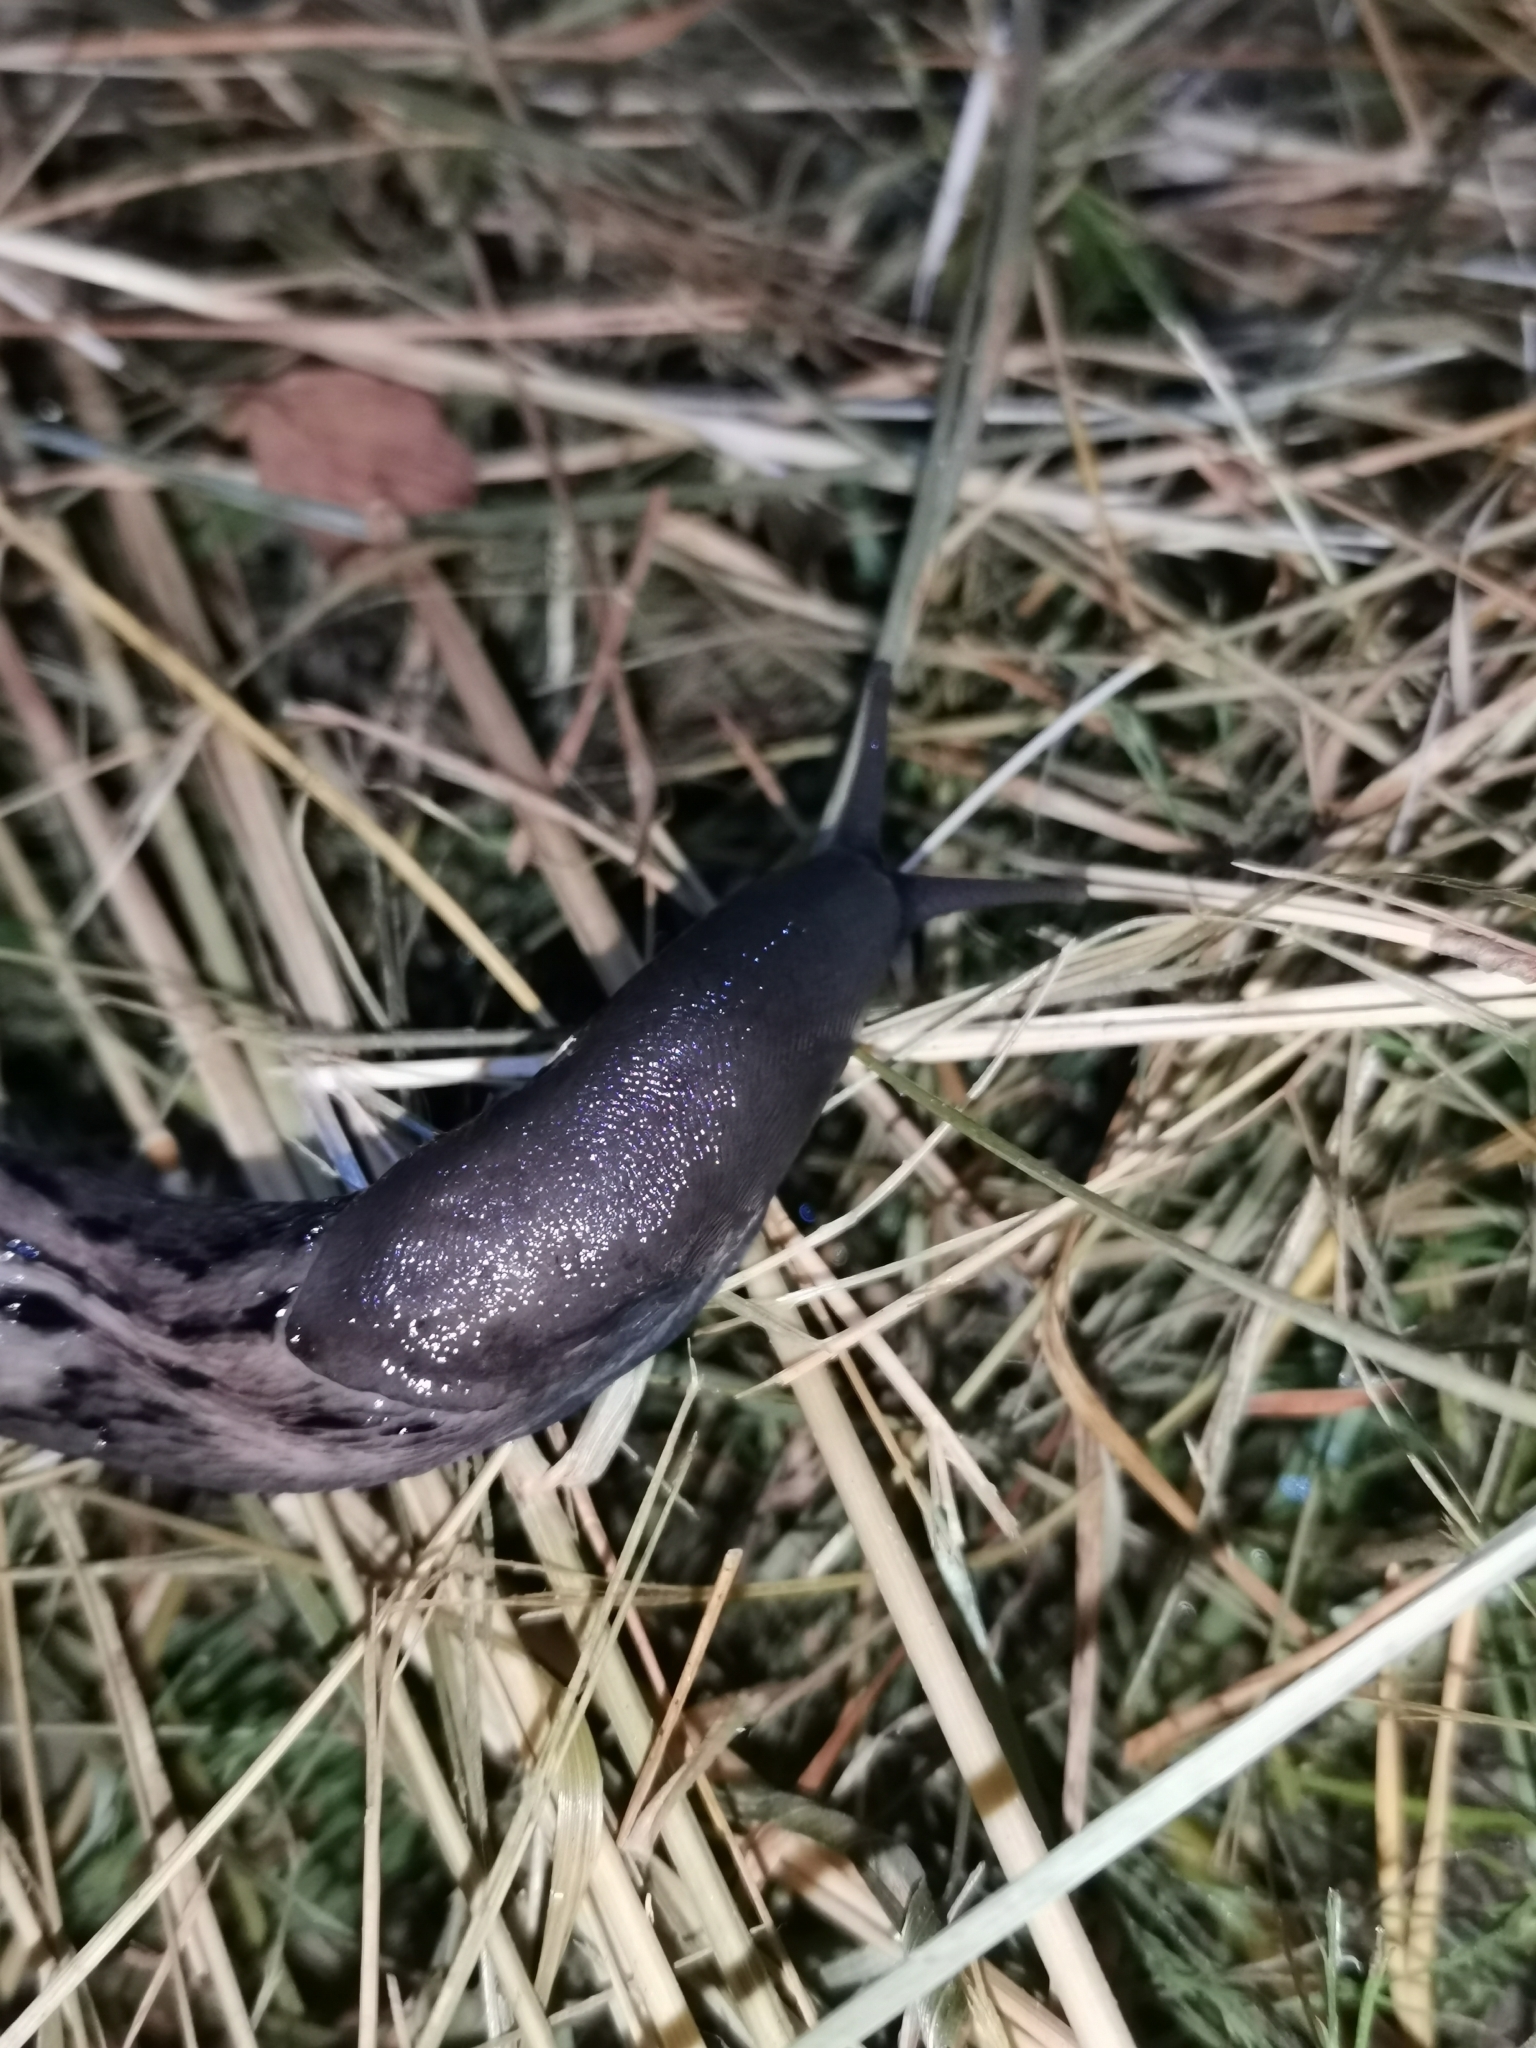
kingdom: Animalia
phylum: Mollusca
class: Gastropoda
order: Stylommatophora
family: Limacidae
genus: Limax
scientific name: Limax cinereoniger
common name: Ash-black slug
